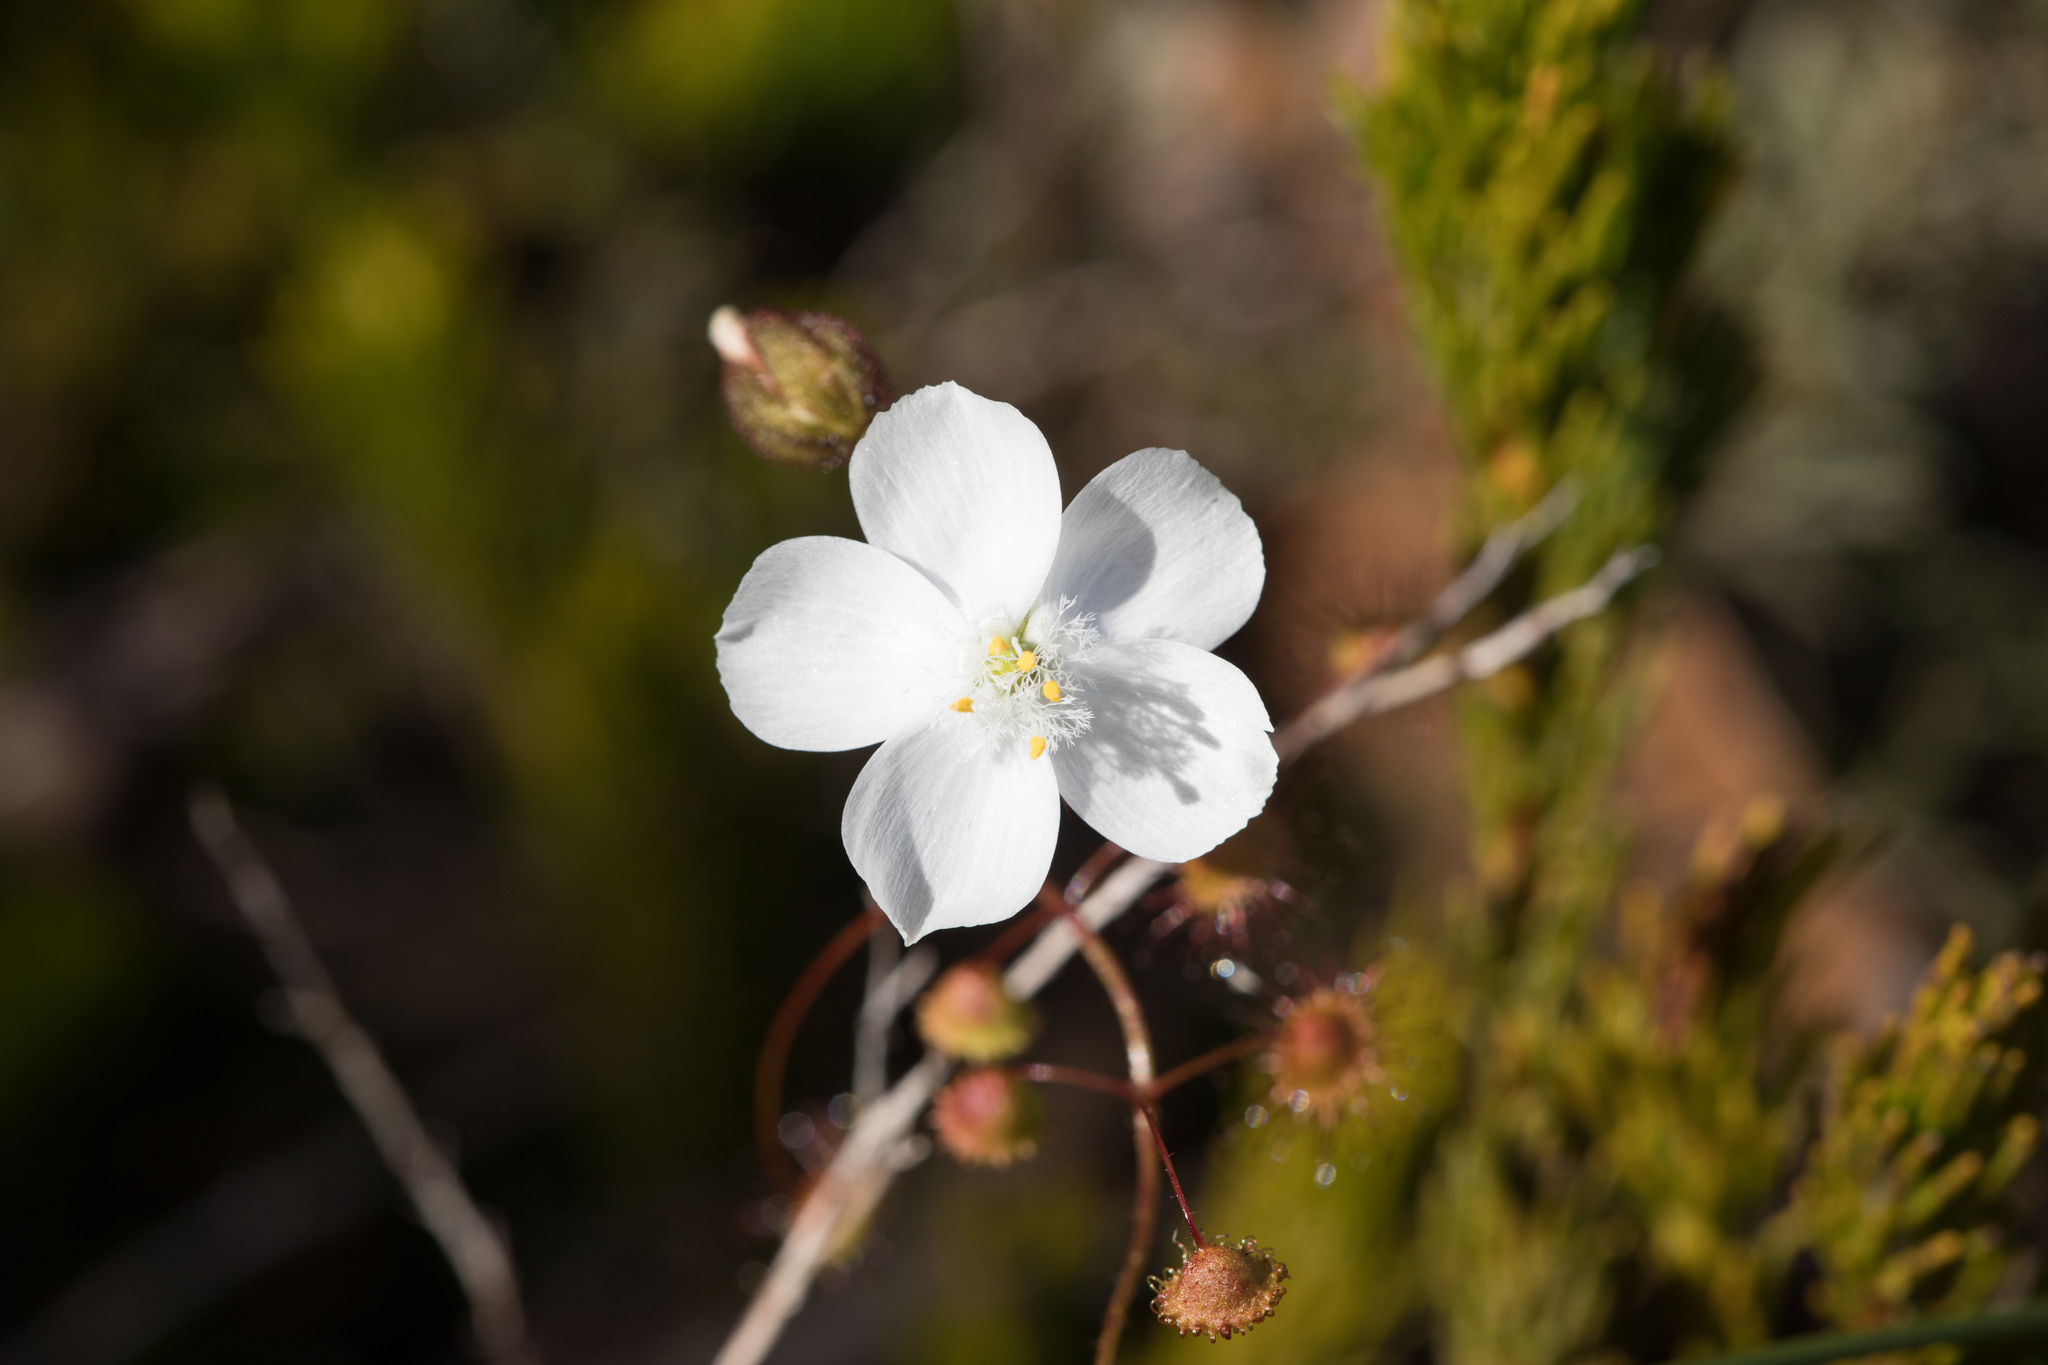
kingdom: Plantae
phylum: Tracheophyta
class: Magnoliopsida
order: Caryophyllales
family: Droseraceae
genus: Drosera
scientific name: Drosera planchonii
